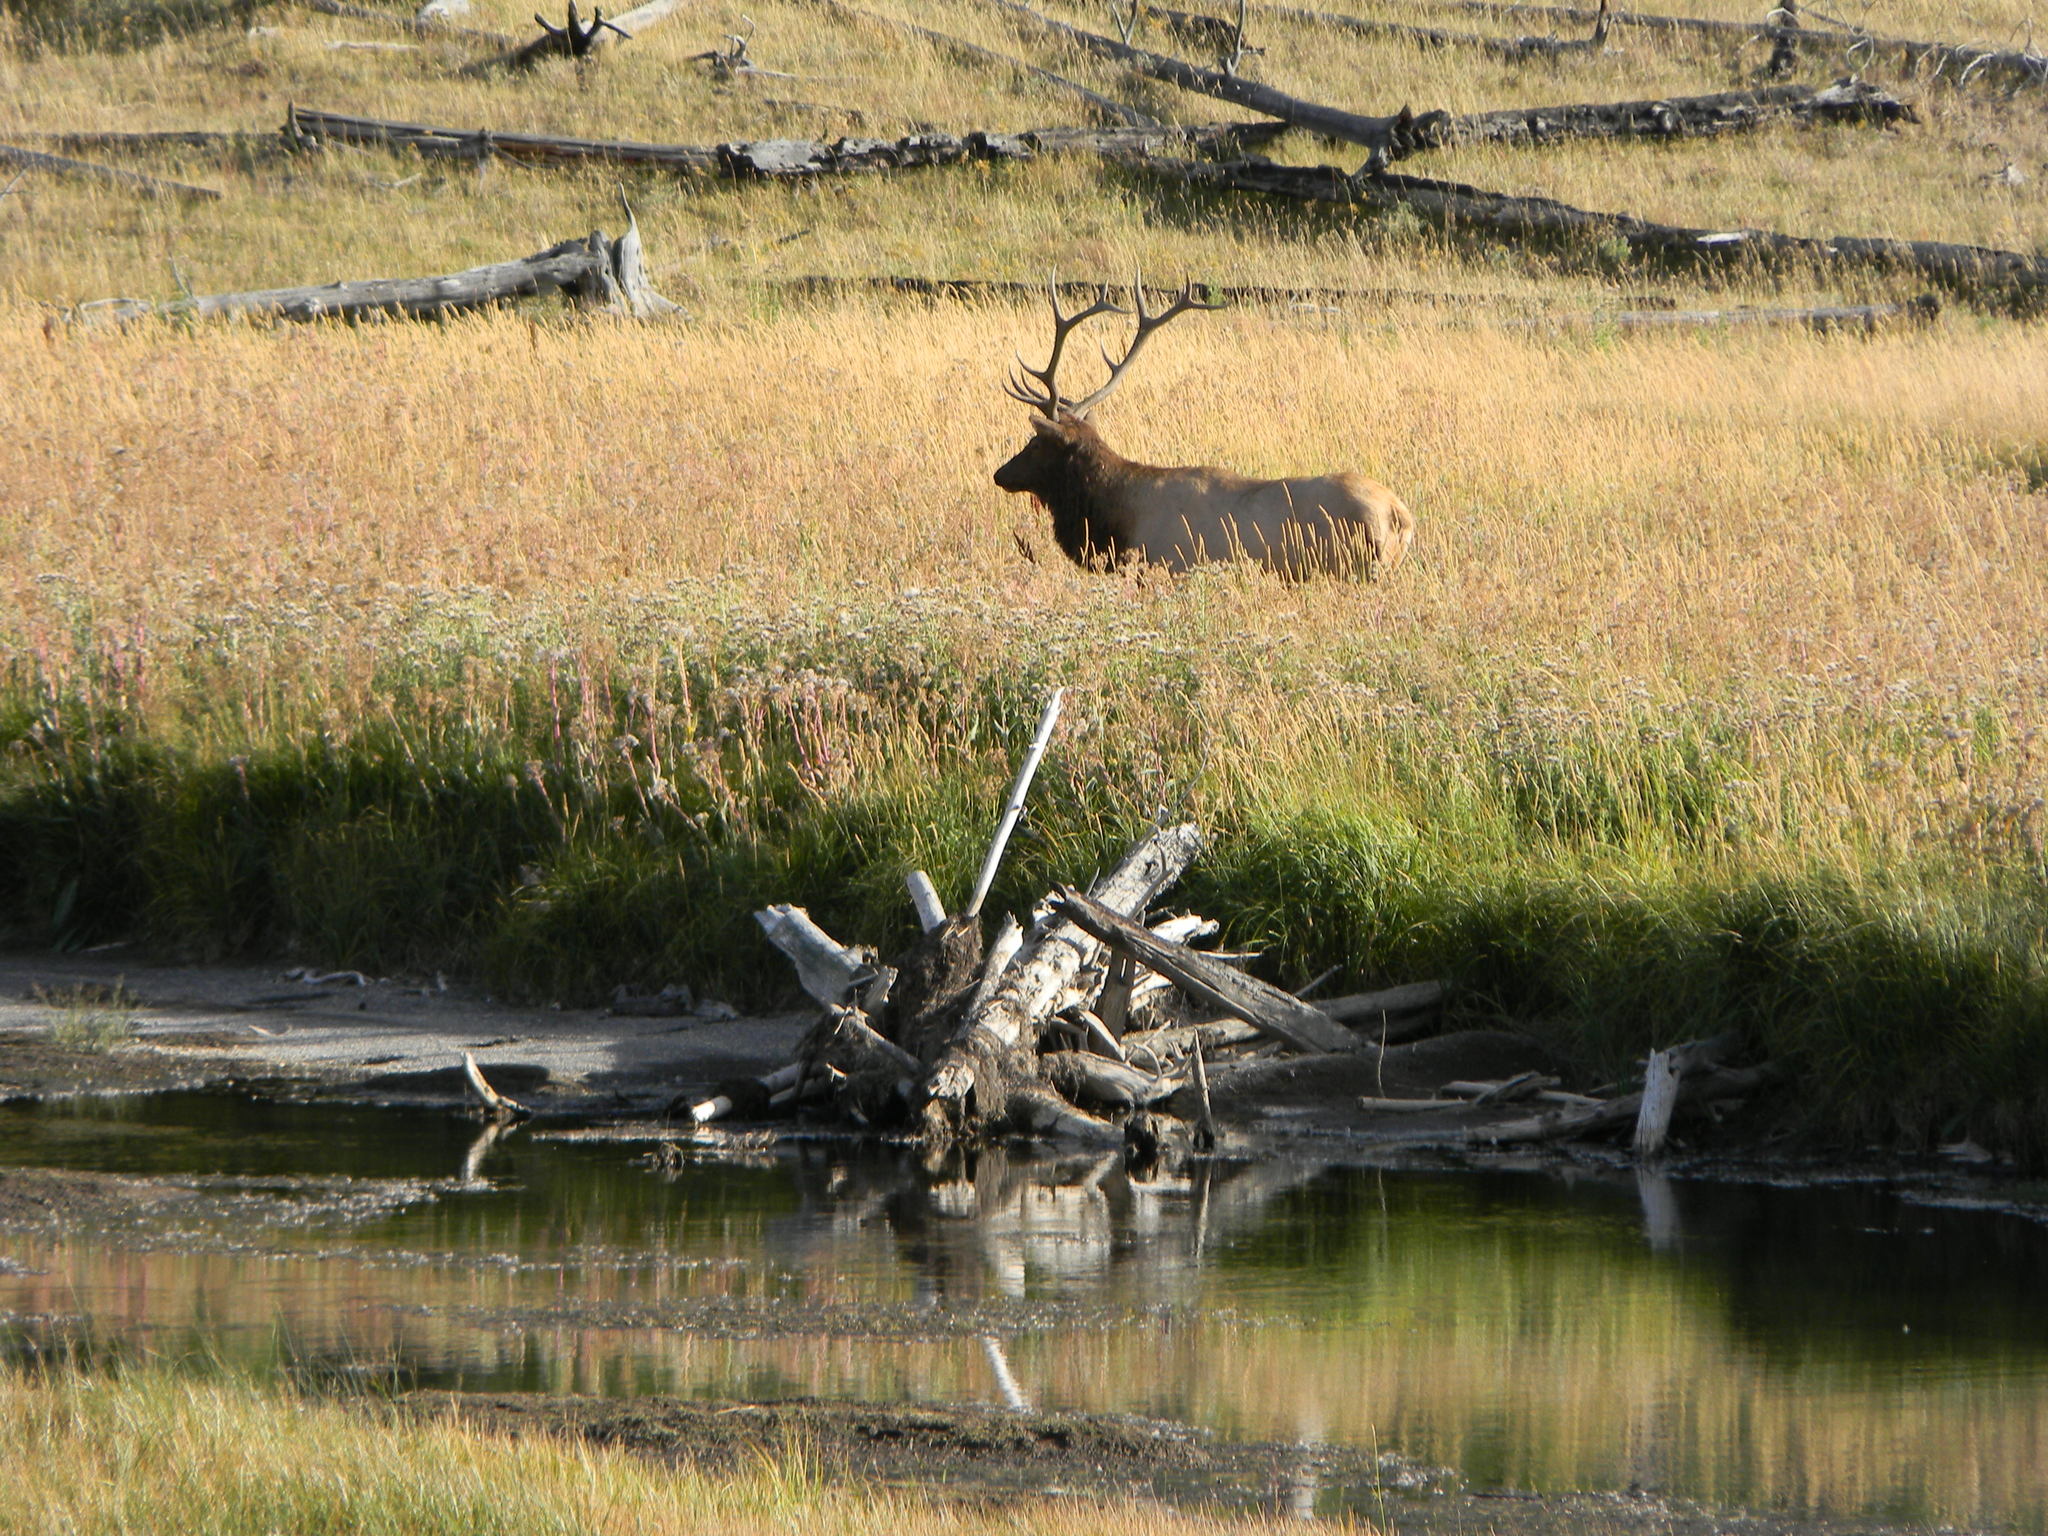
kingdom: Animalia
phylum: Chordata
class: Mammalia
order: Artiodactyla
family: Cervidae
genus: Cervus
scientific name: Cervus elaphus
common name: Red deer
